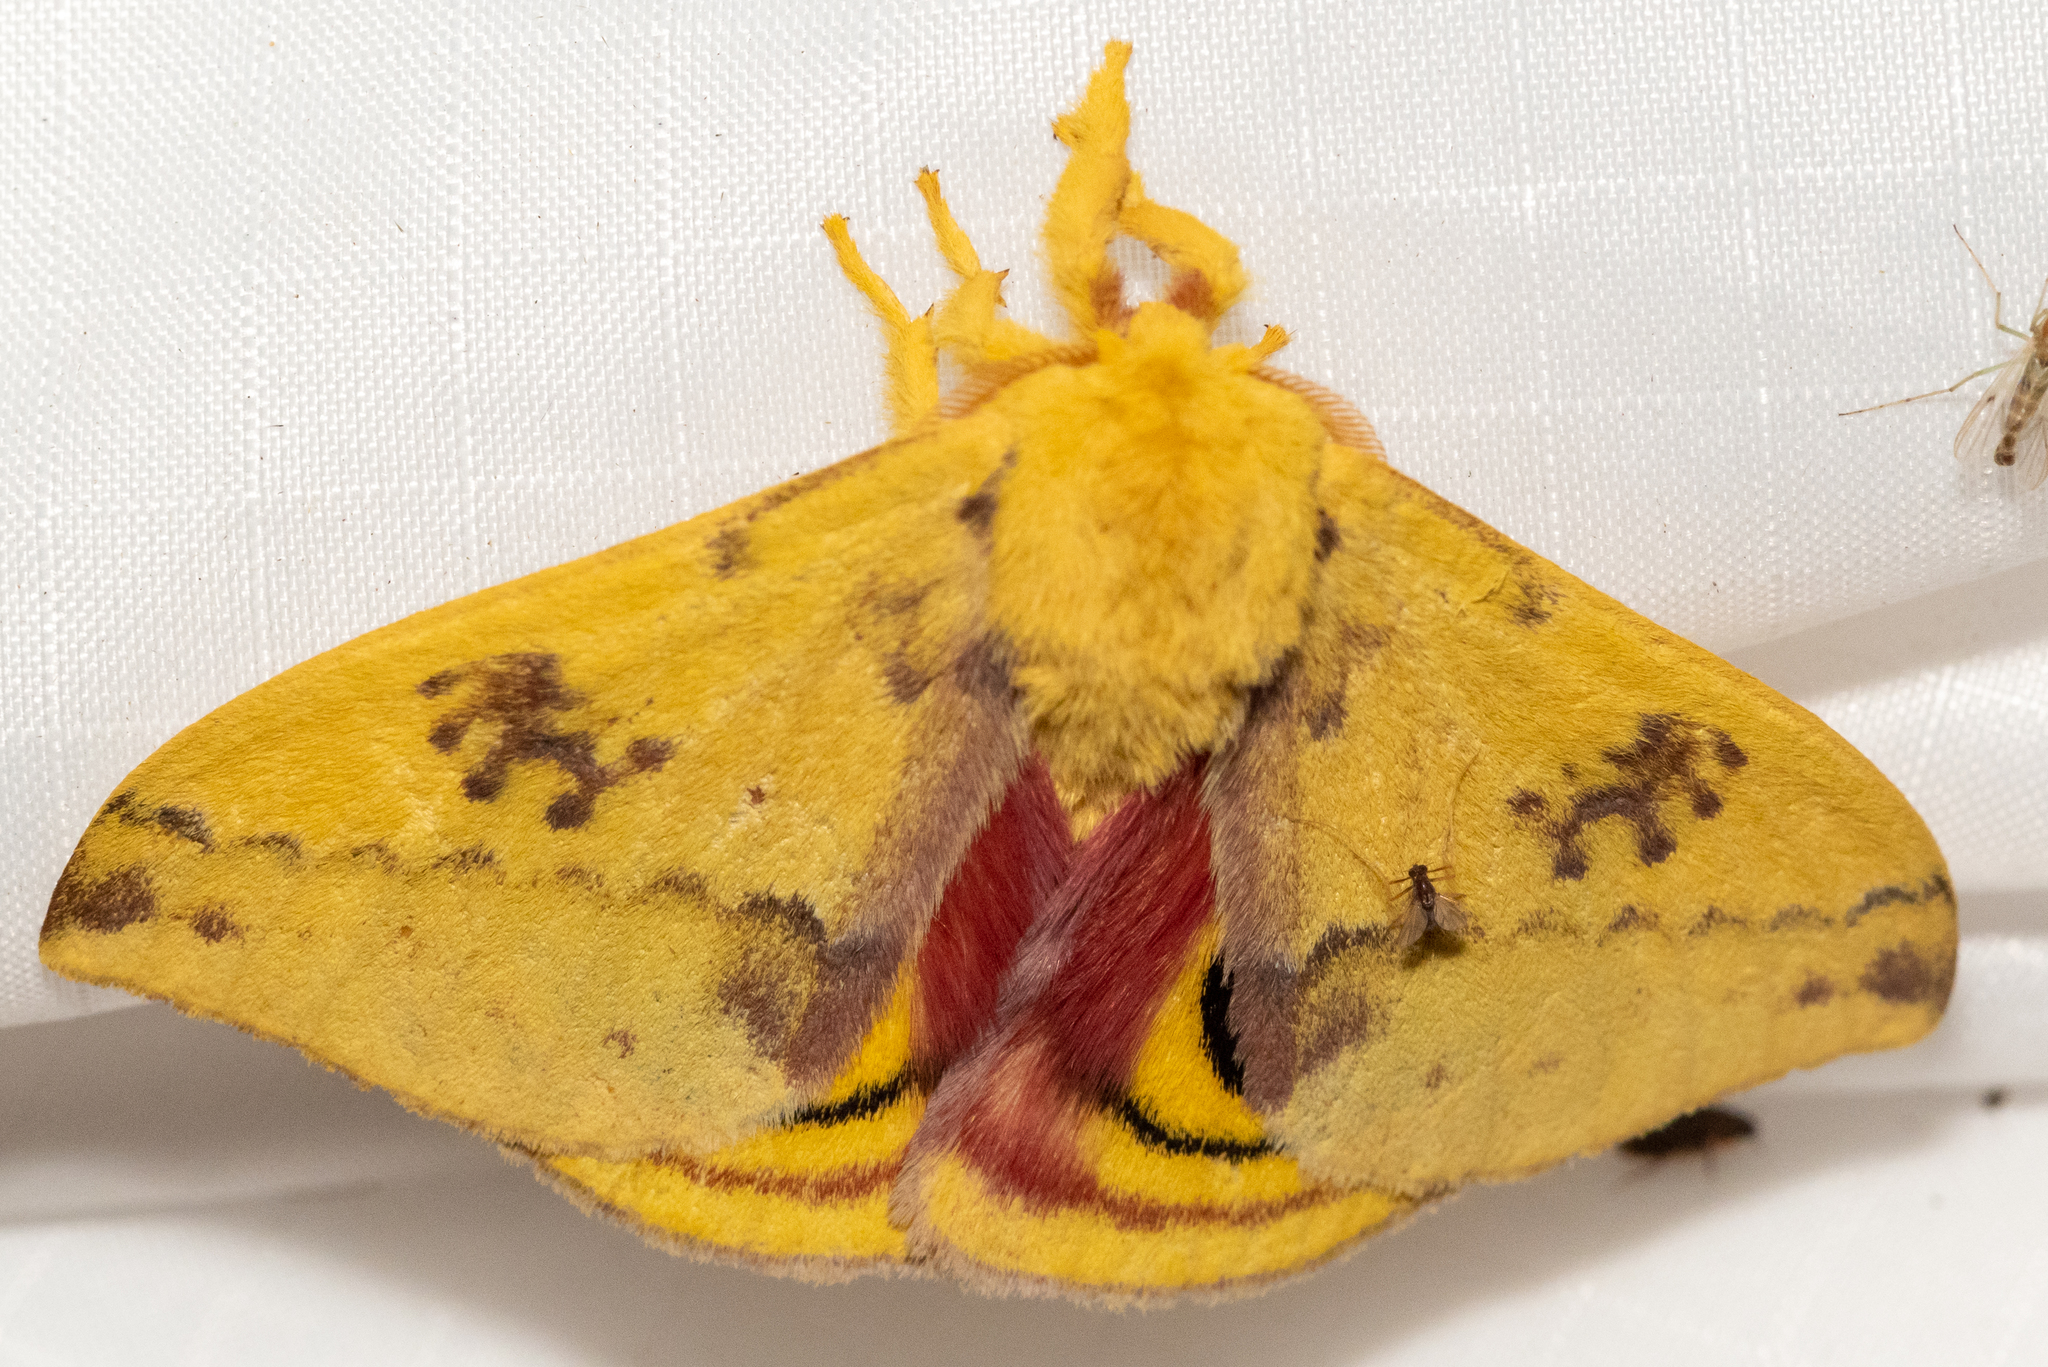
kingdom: Animalia
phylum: Arthropoda
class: Insecta
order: Lepidoptera
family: Saturniidae
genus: Automeris
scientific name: Automeris io
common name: Io moth
